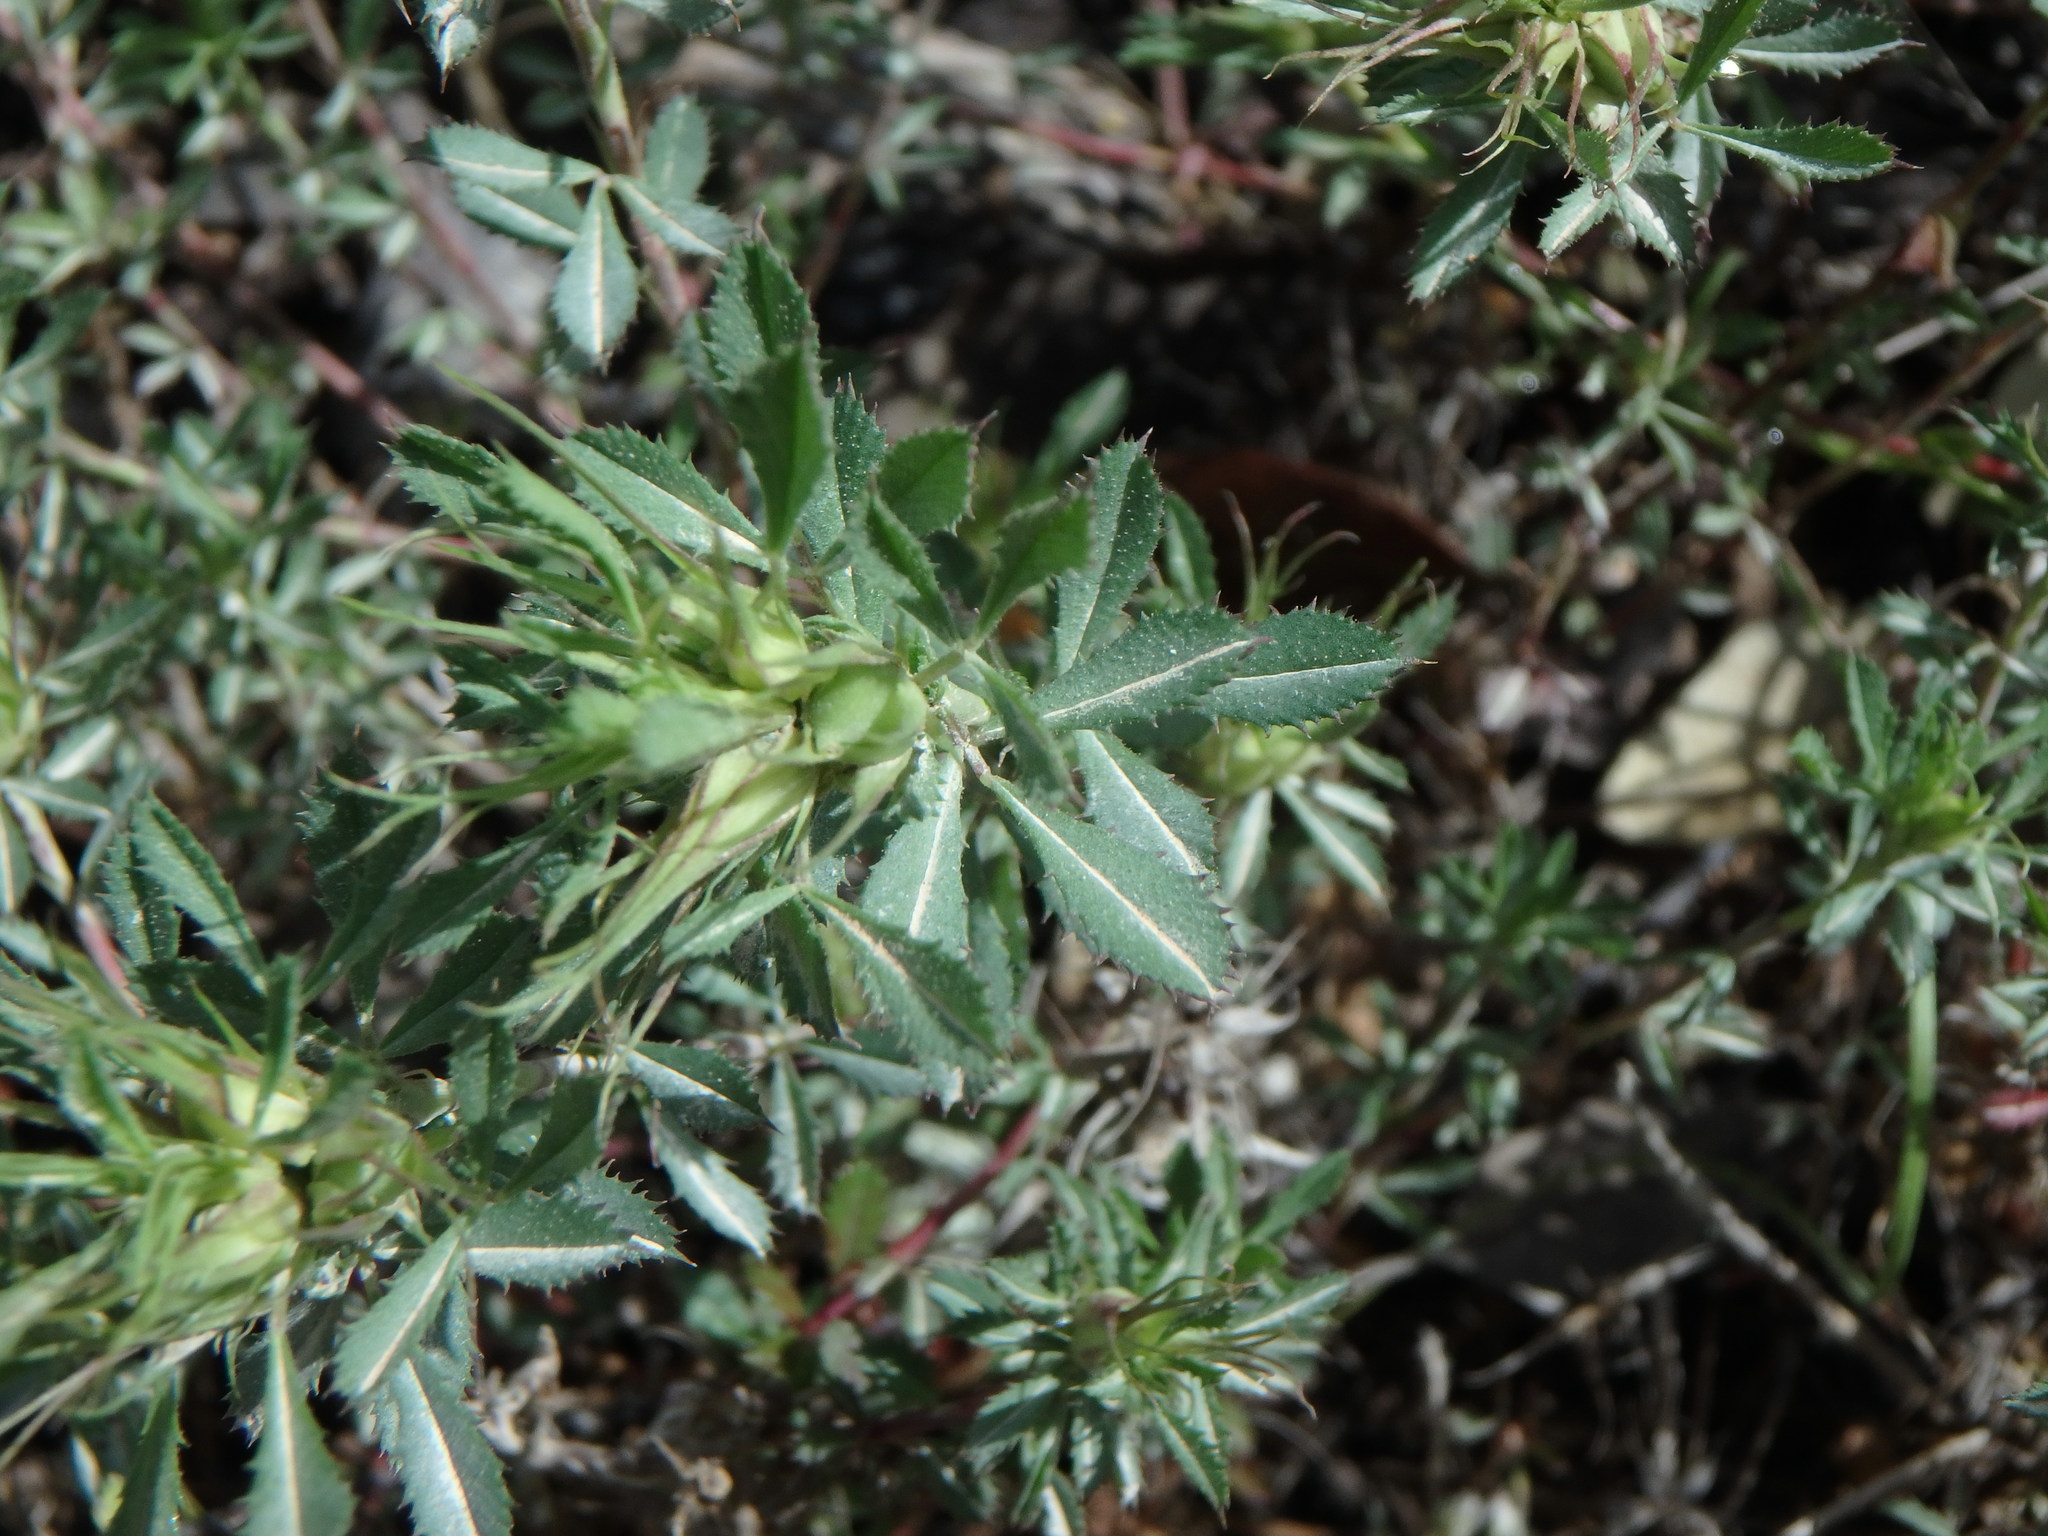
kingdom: Plantae
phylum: Tracheophyta
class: Magnoliopsida
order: Fabales
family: Fabaceae
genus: Ononis
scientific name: Ononis minutissima
